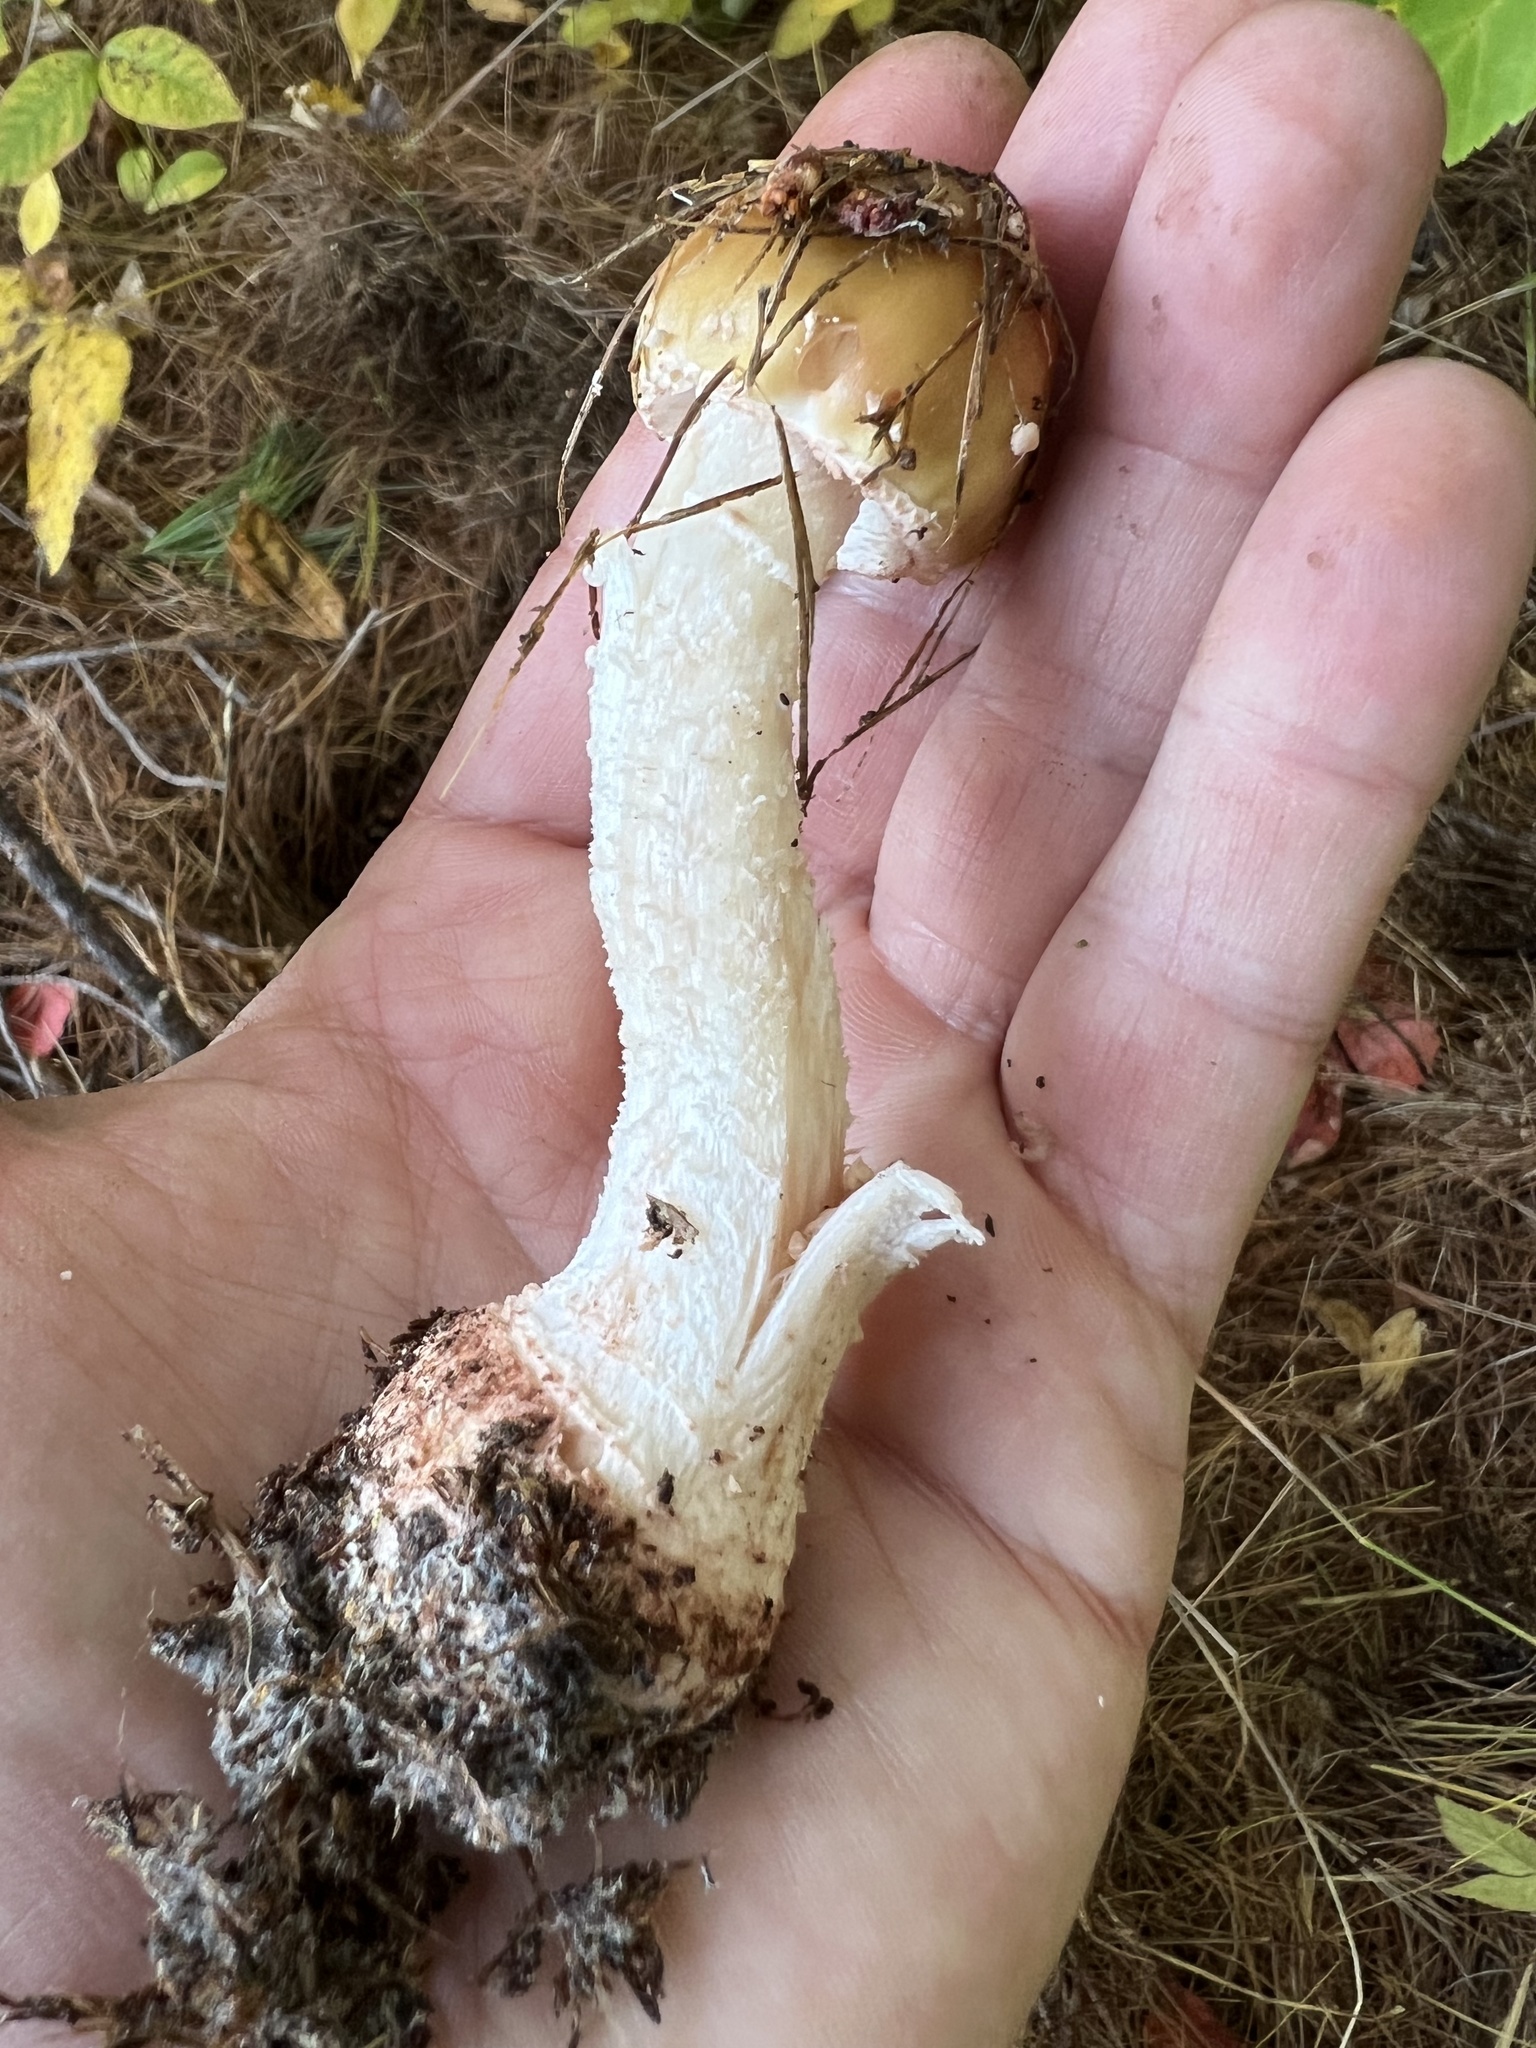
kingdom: Fungi
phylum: Basidiomycota
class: Agaricomycetes
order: Agaricales
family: Amanitaceae
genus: Amanita
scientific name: Amanita rubescens
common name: Blusher
